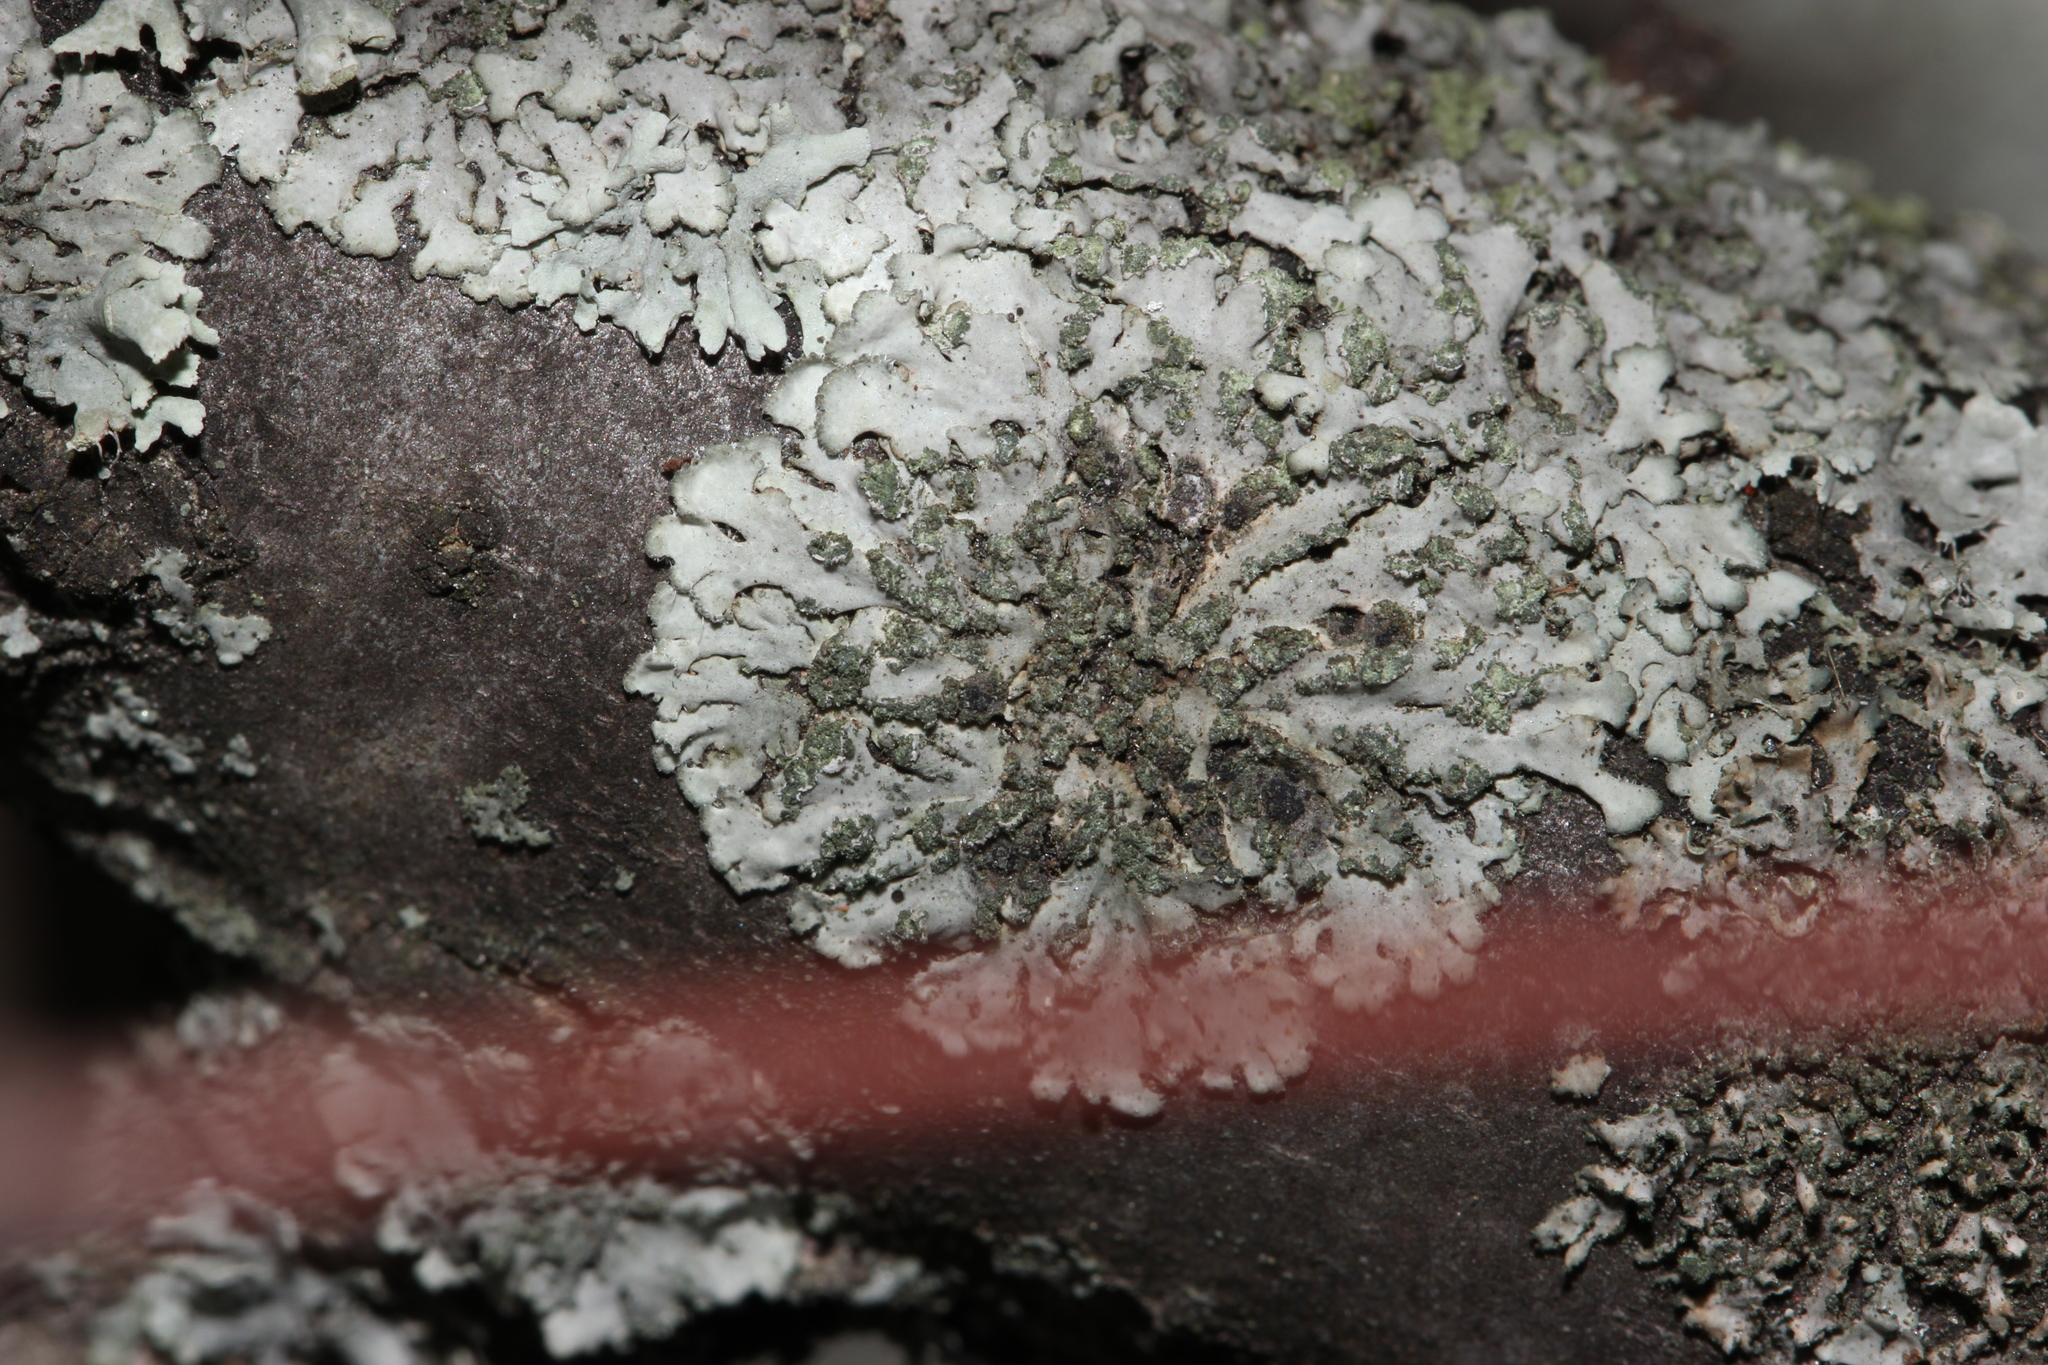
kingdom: Fungi
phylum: Ascomycota
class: Lecanoromycetes
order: Caliciales
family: Physciaceae
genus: Phaeophyscia
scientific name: Phaeophyscia orbicularis
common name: Mealy shadow lichen
